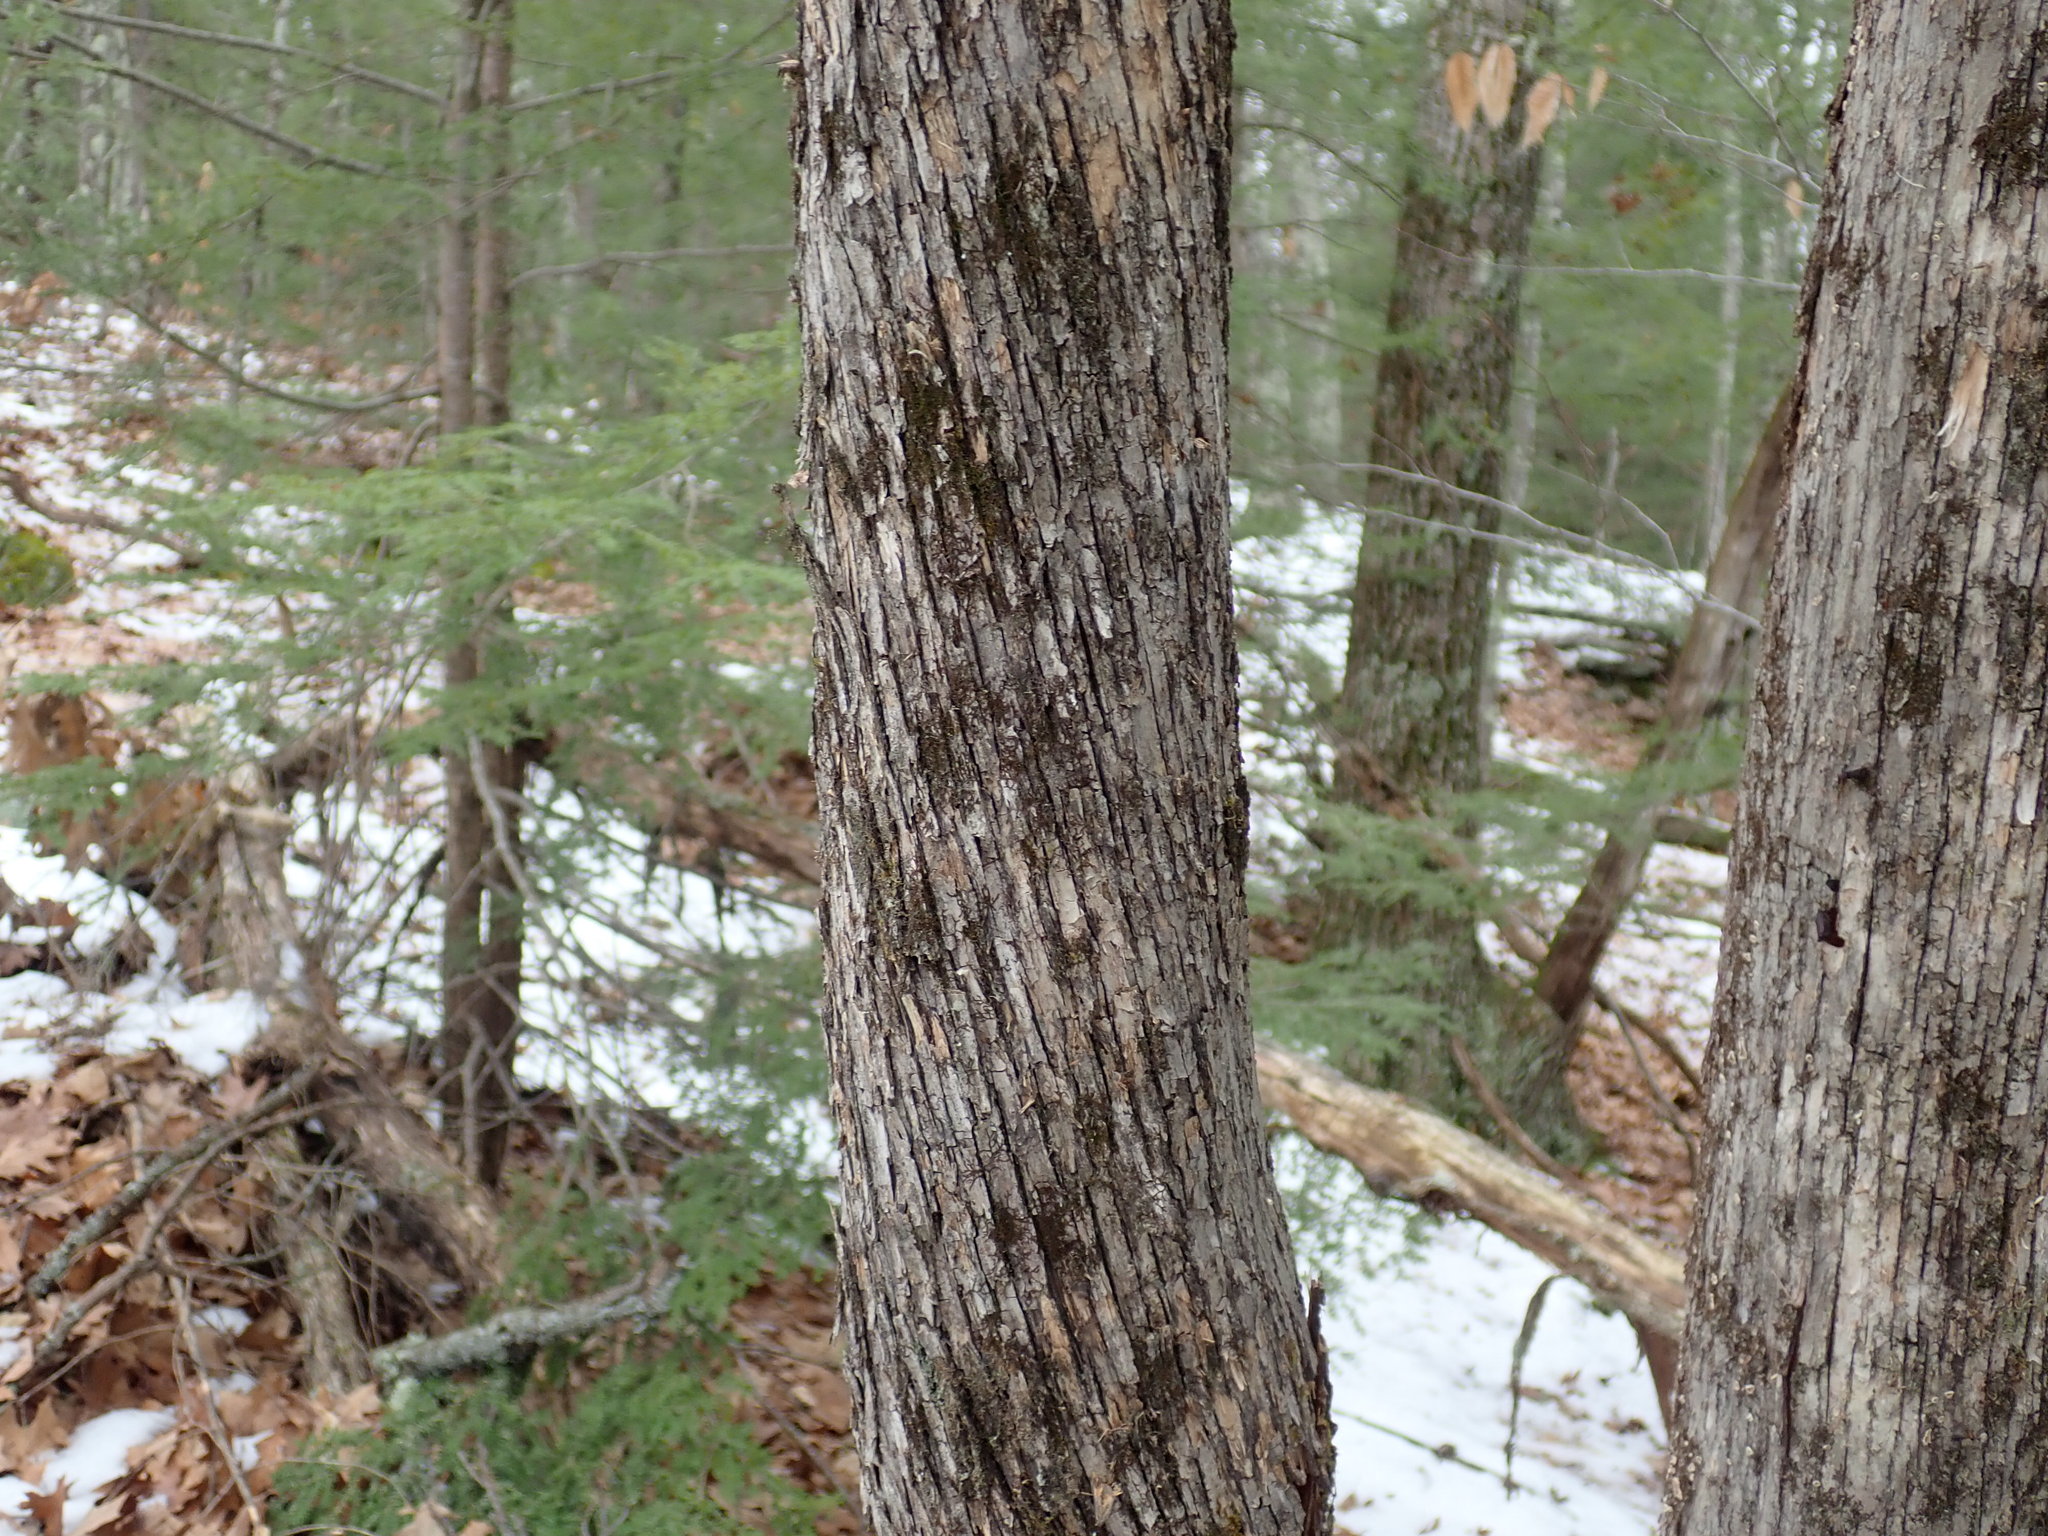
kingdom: Plantae
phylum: Tracheophyta
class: Magnoliopsida
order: Fagales
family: Betulaceae
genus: Ostrya
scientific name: Ostrya virginiana
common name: Ironwood
